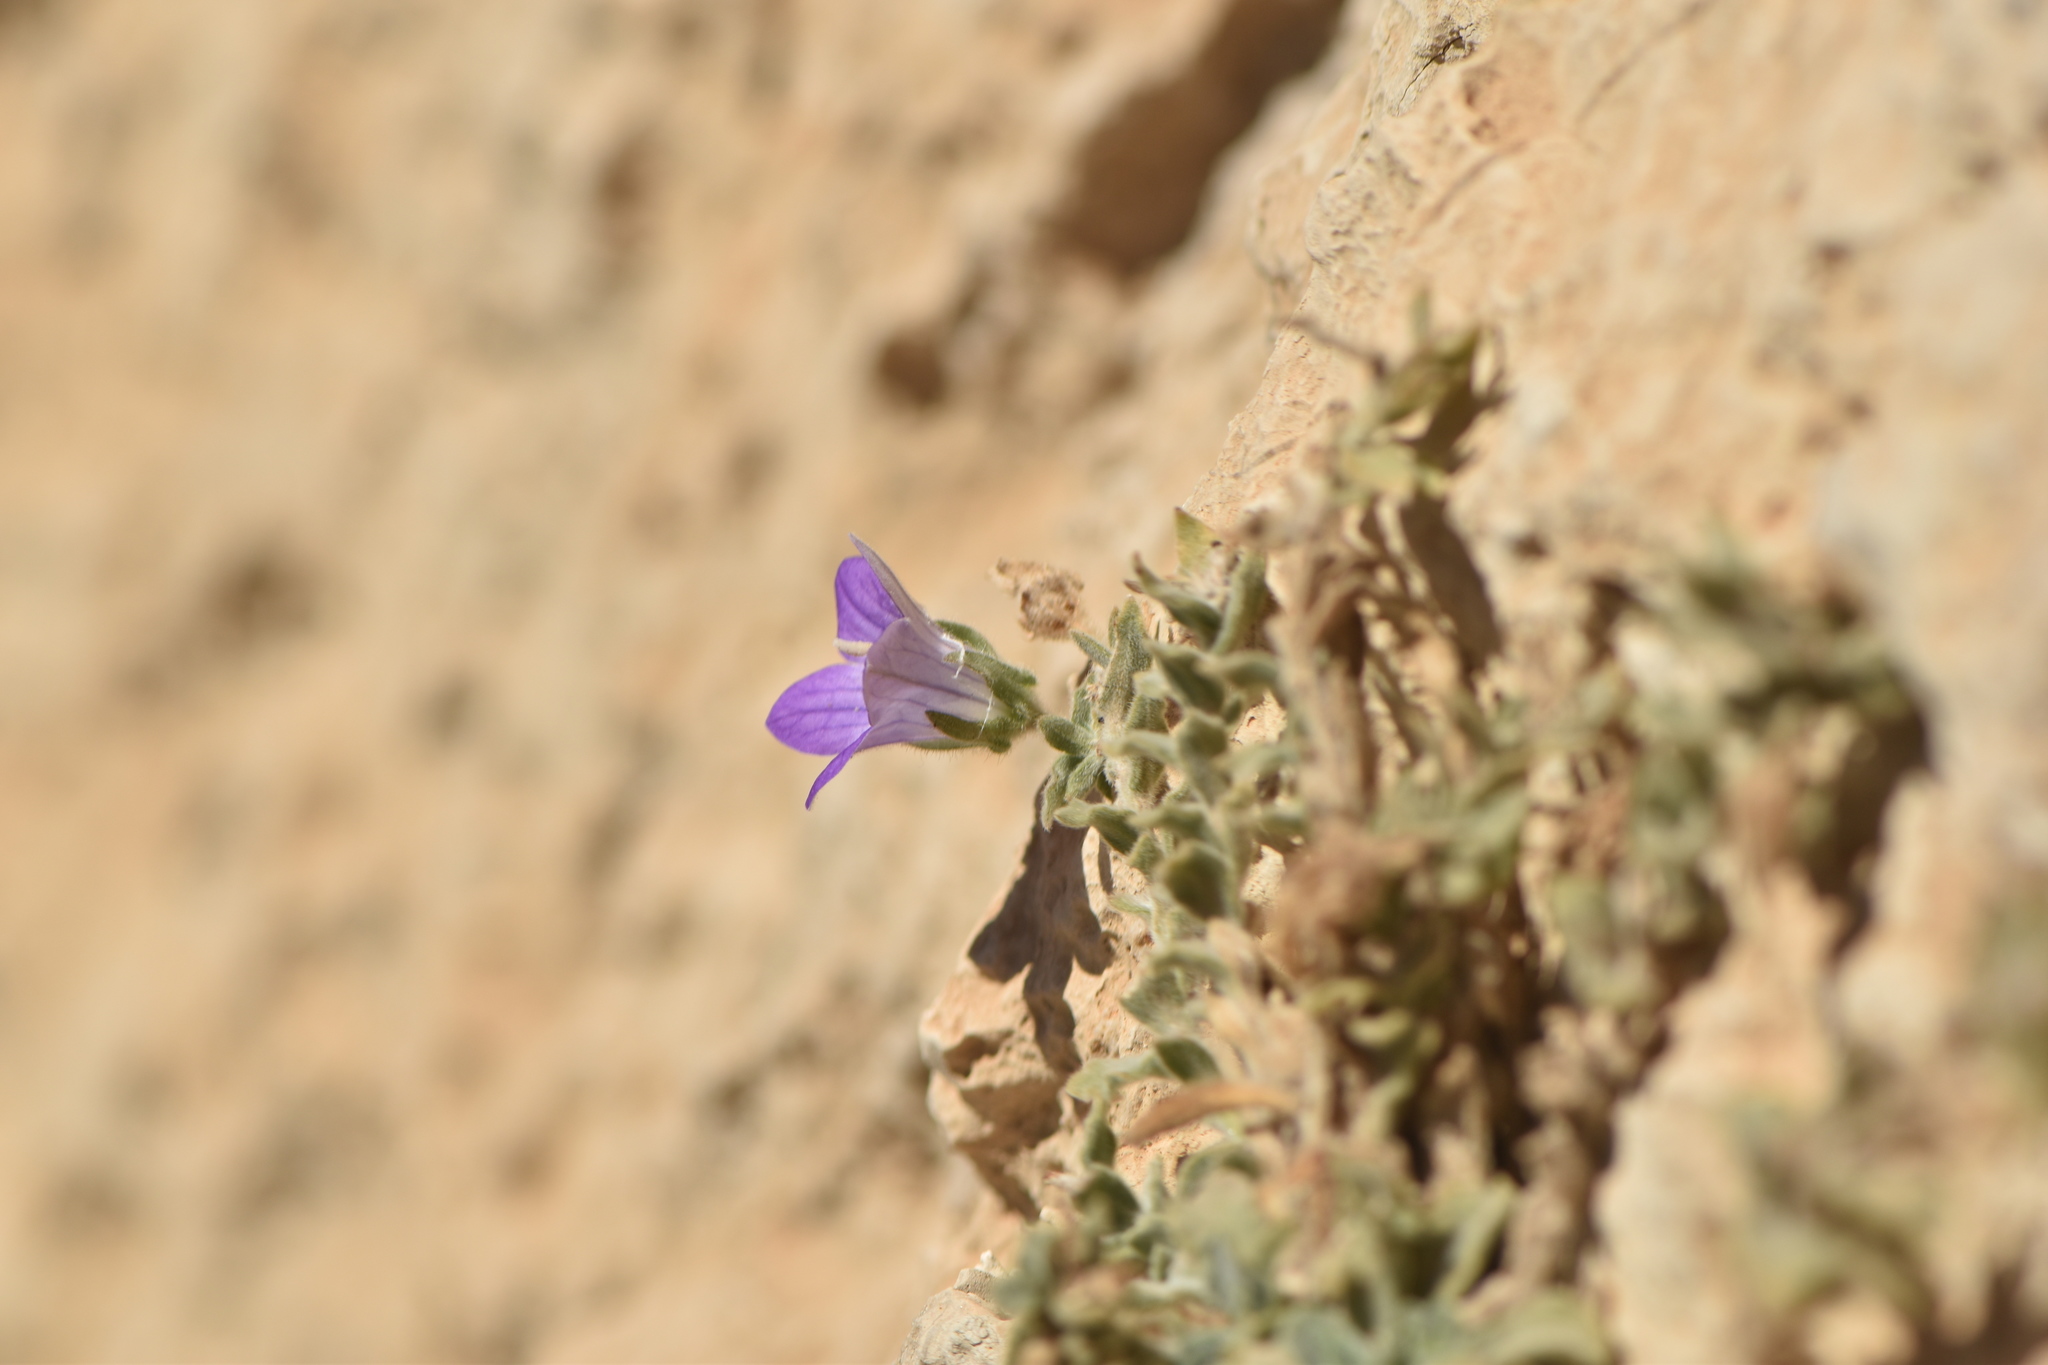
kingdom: Plantae
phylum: Tracheophyta
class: Magnoliopsida
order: Asterales
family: Campanulaceae
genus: Campanula
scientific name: Campanula mollis
